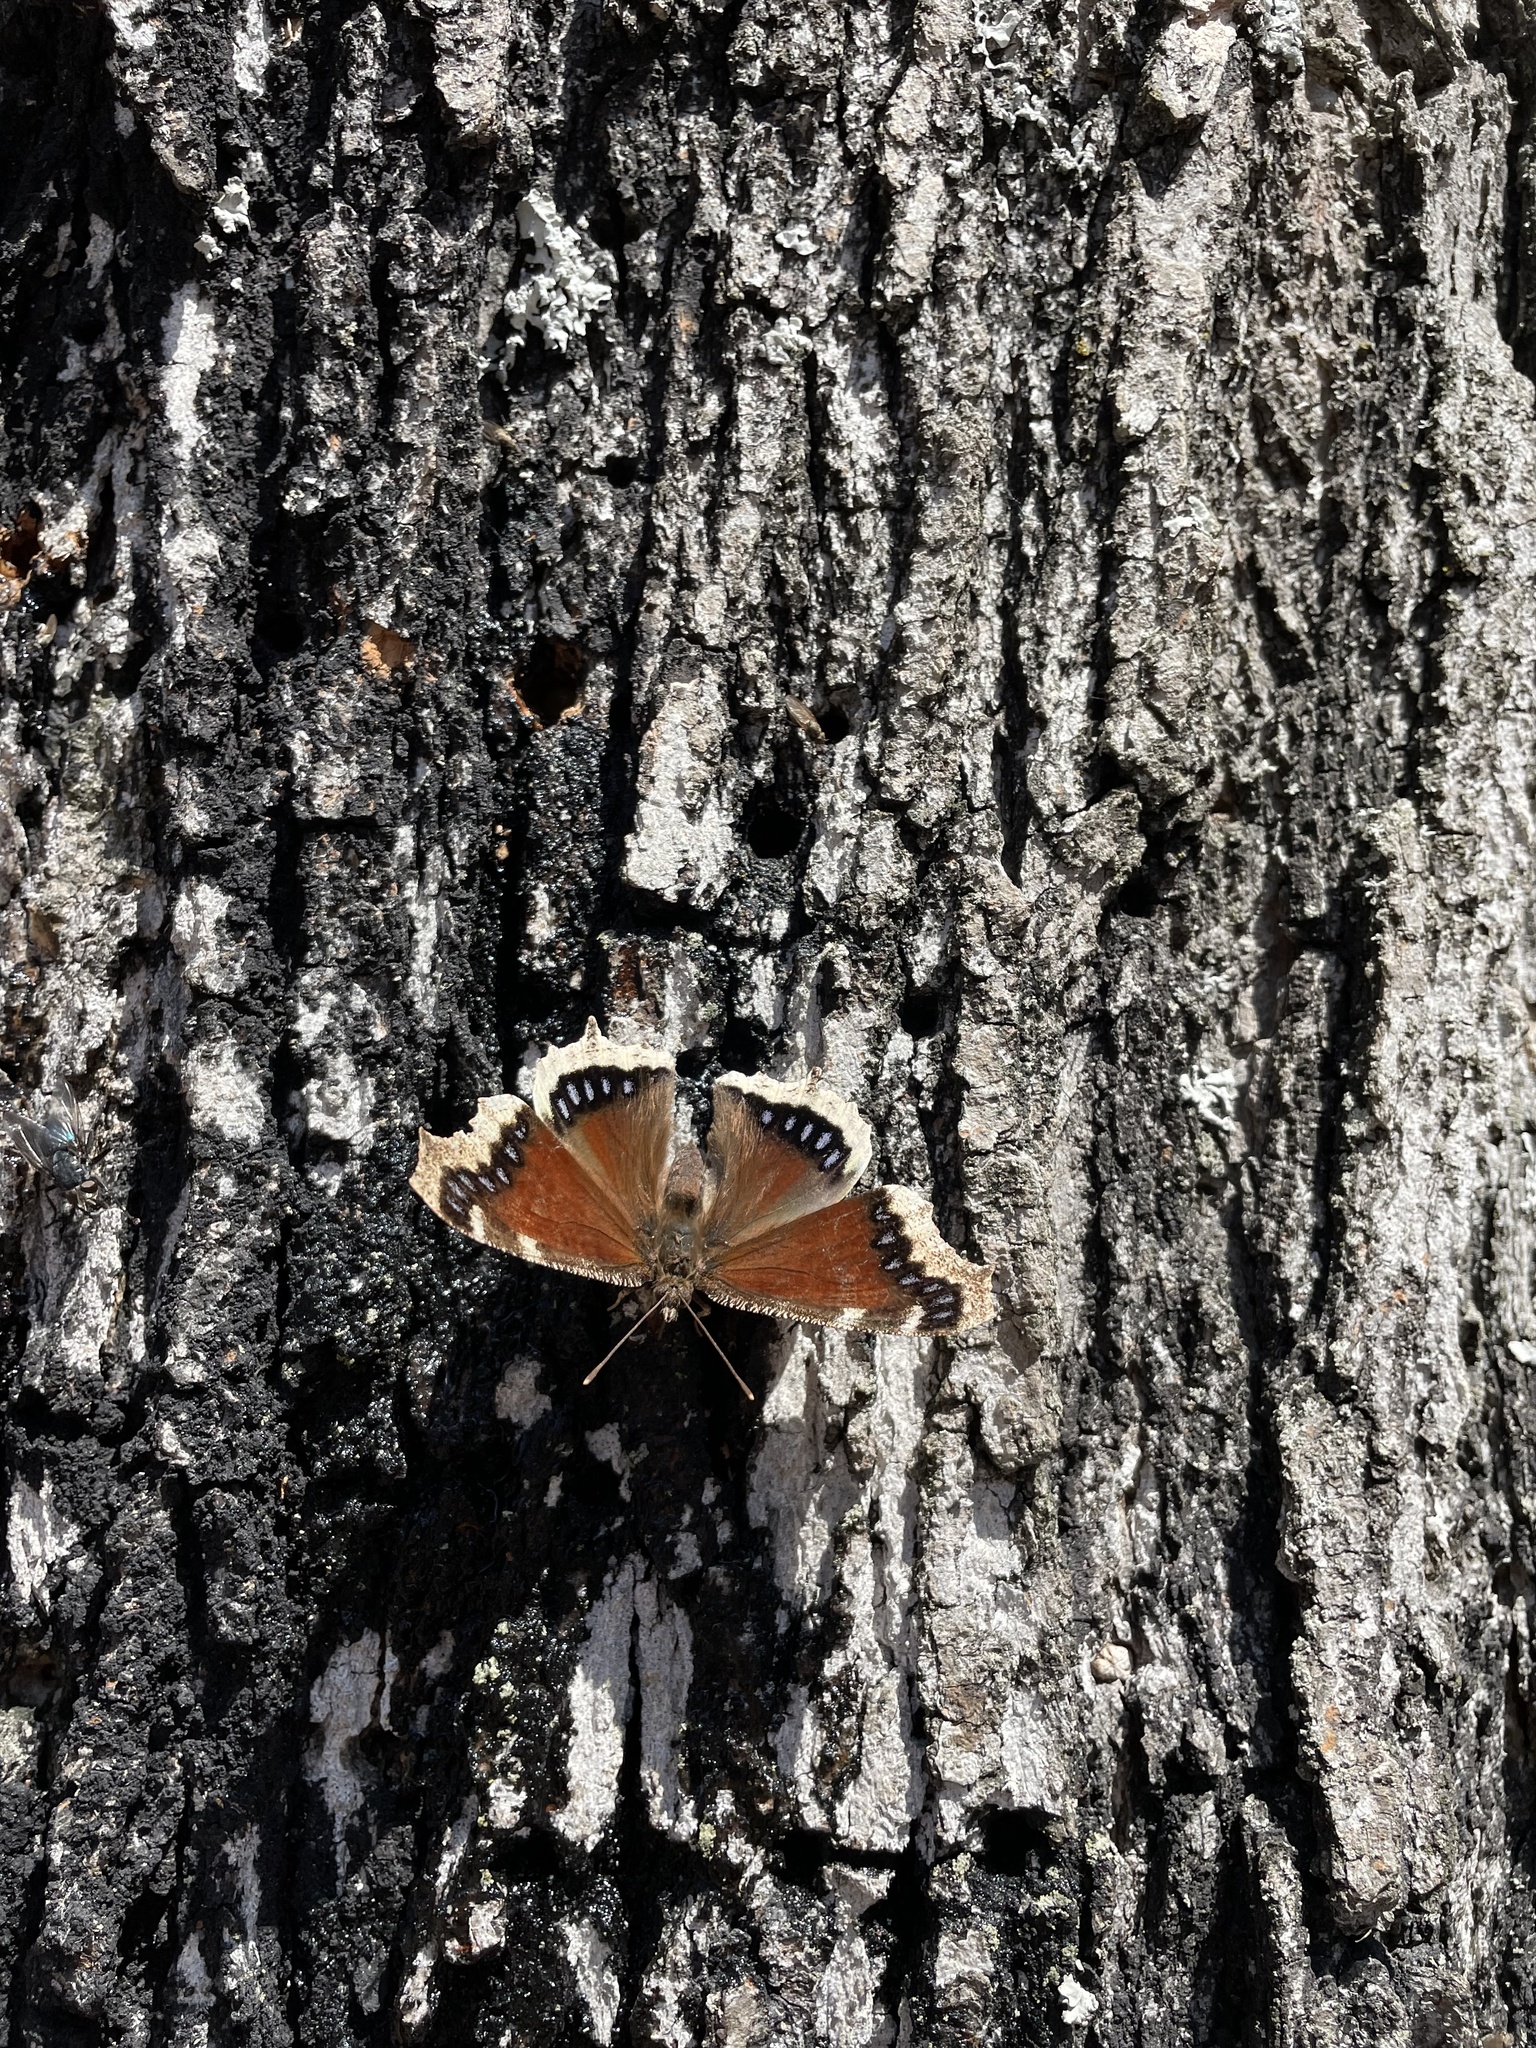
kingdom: Animalia
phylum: Arthropoda
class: Insecta
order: Lepidoptera
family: Nymphalidae
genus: Nymphalis
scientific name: Nymphalis antiopa
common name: Camberwell beauty
